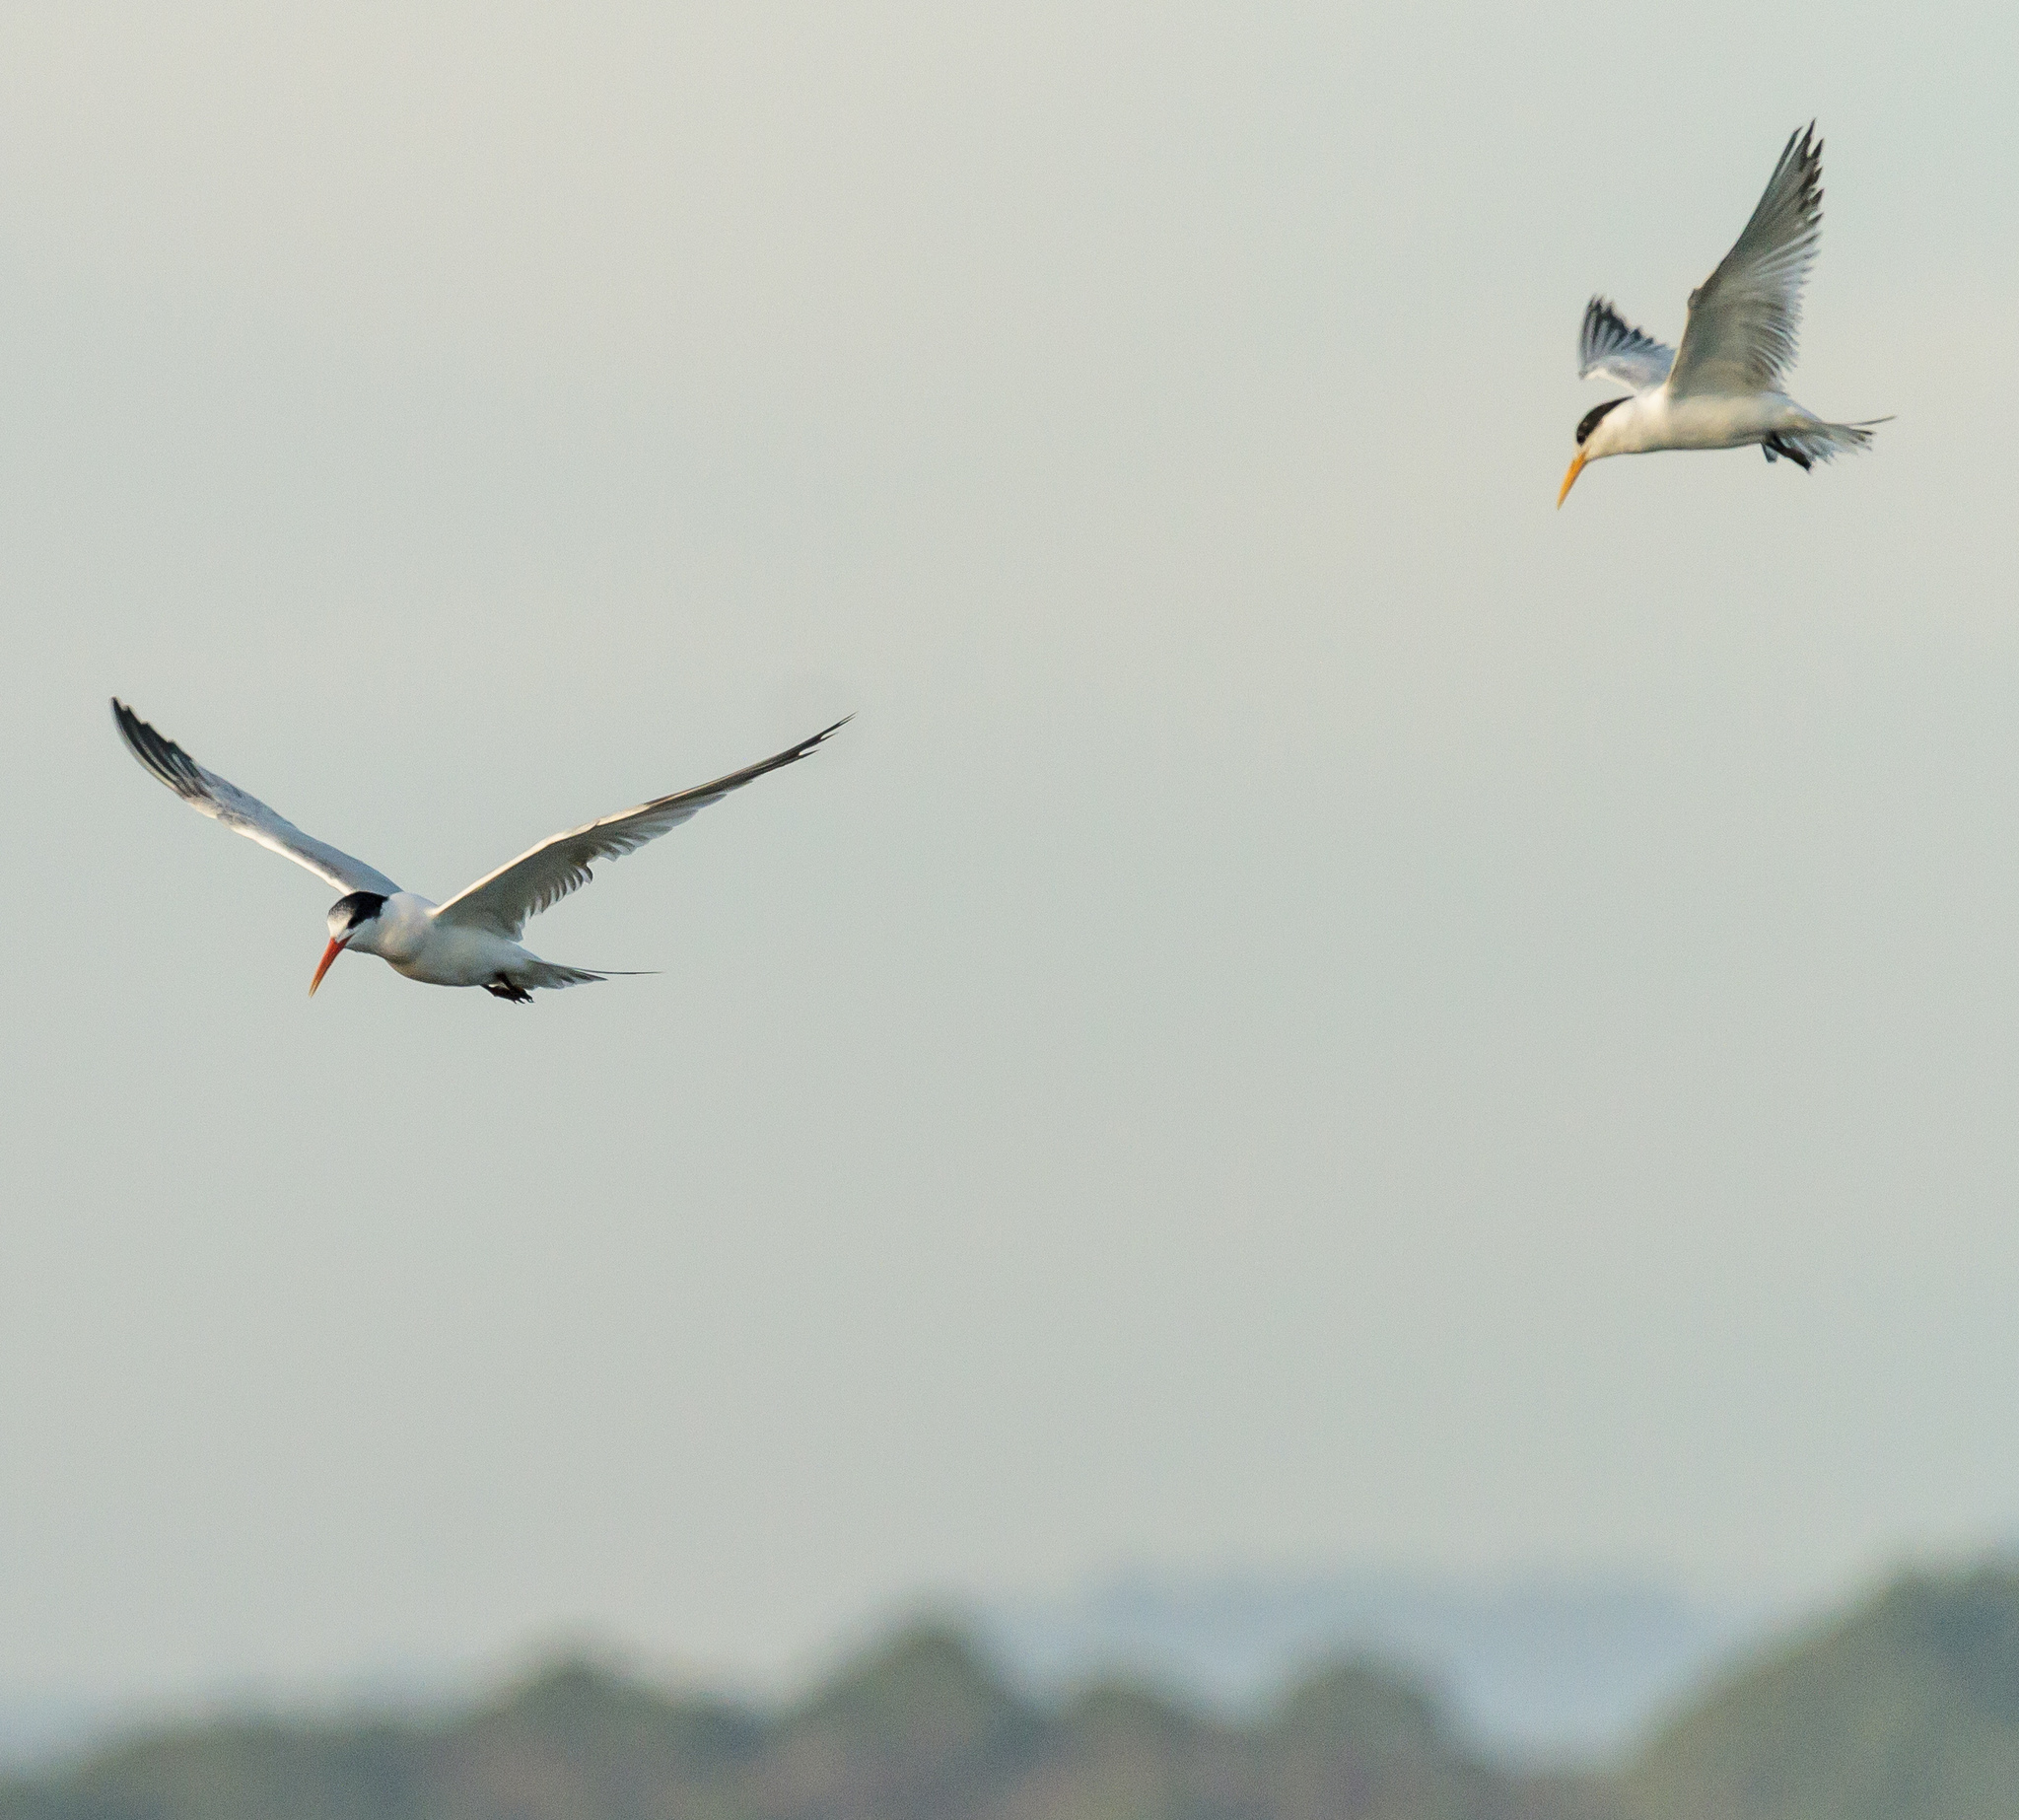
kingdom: Animalia
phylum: Chordata
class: Aves
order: Charadriiformes
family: Laridae
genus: Thalasseus
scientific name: Thalasseus elegans
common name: Elegant tern
